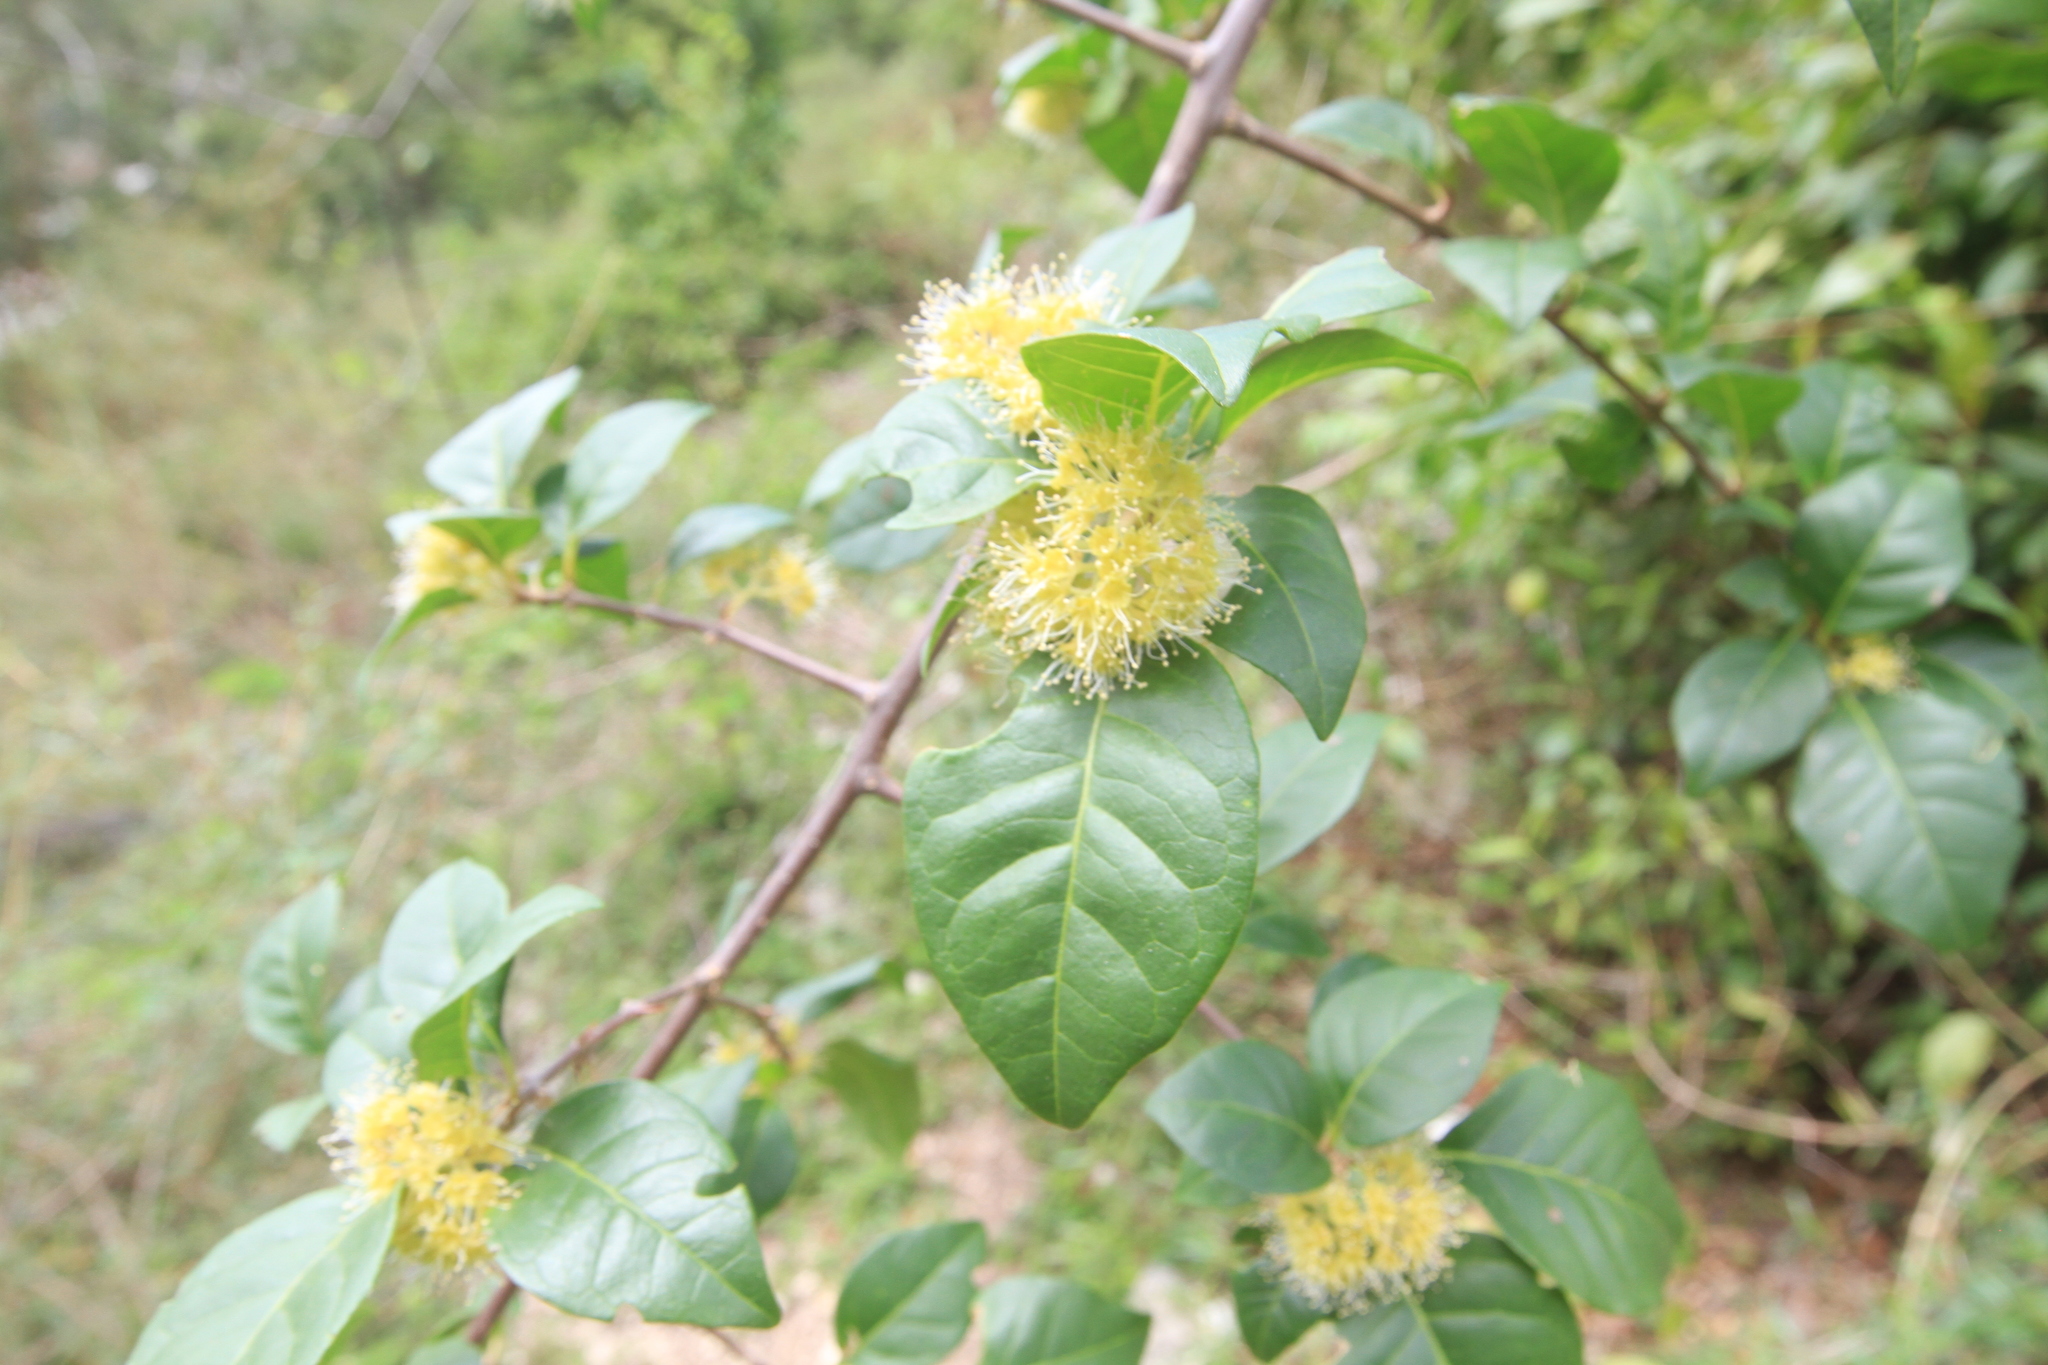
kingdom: Plantae
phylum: Tracheophyta
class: Magnoliopsida
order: Caryophyllales
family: Nyctaginaceae
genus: Pisonia
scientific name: Pisonia aculeata
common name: Cockspur vine
